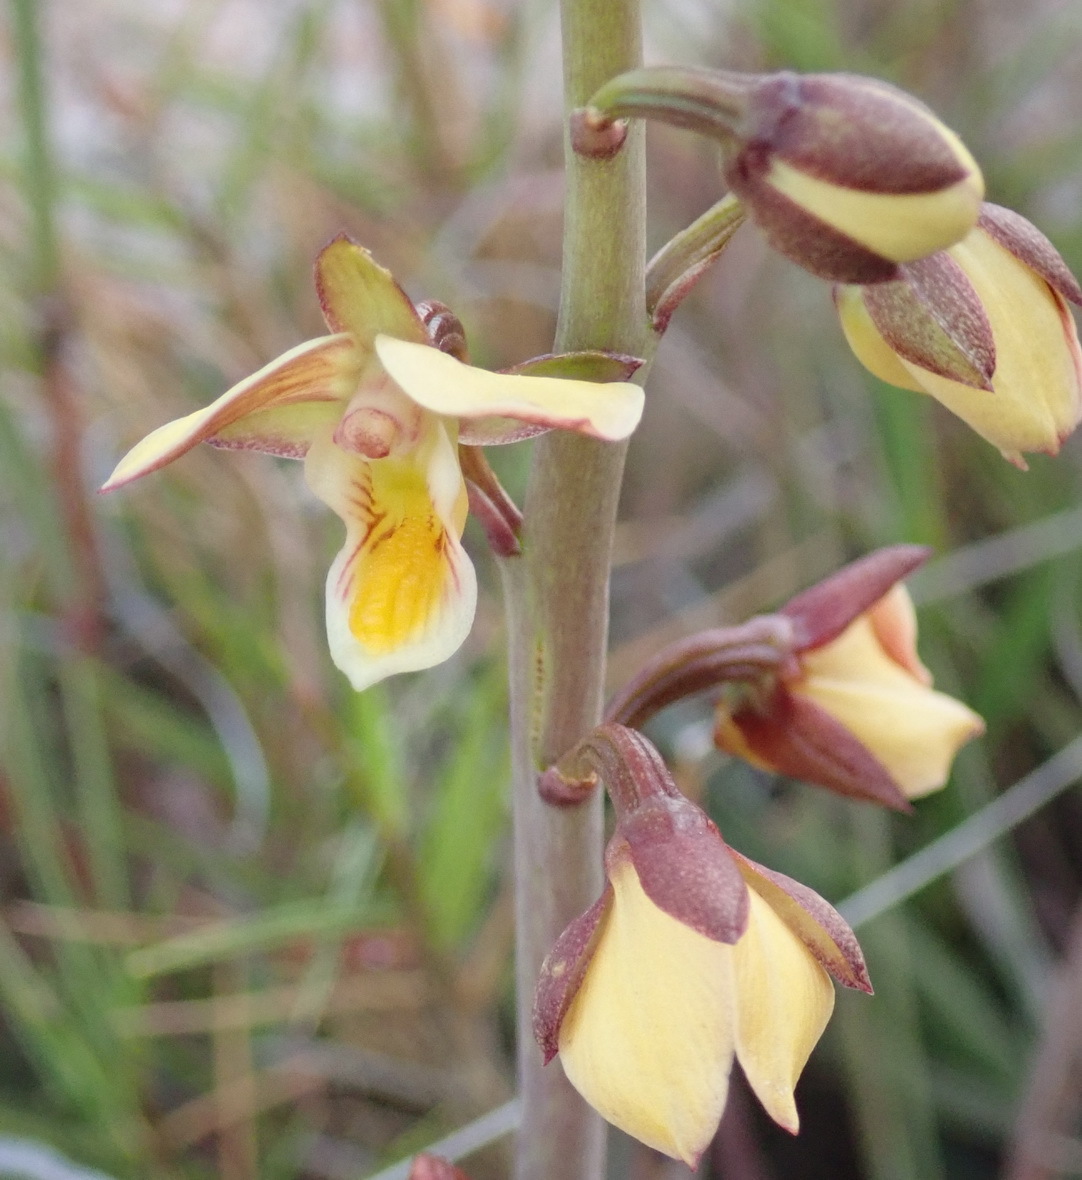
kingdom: Plantae
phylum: Tracheophyta
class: Liliopsida
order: Asparagales
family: Orchidaceae
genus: Eulophia
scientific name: Eulophia tuberculata
